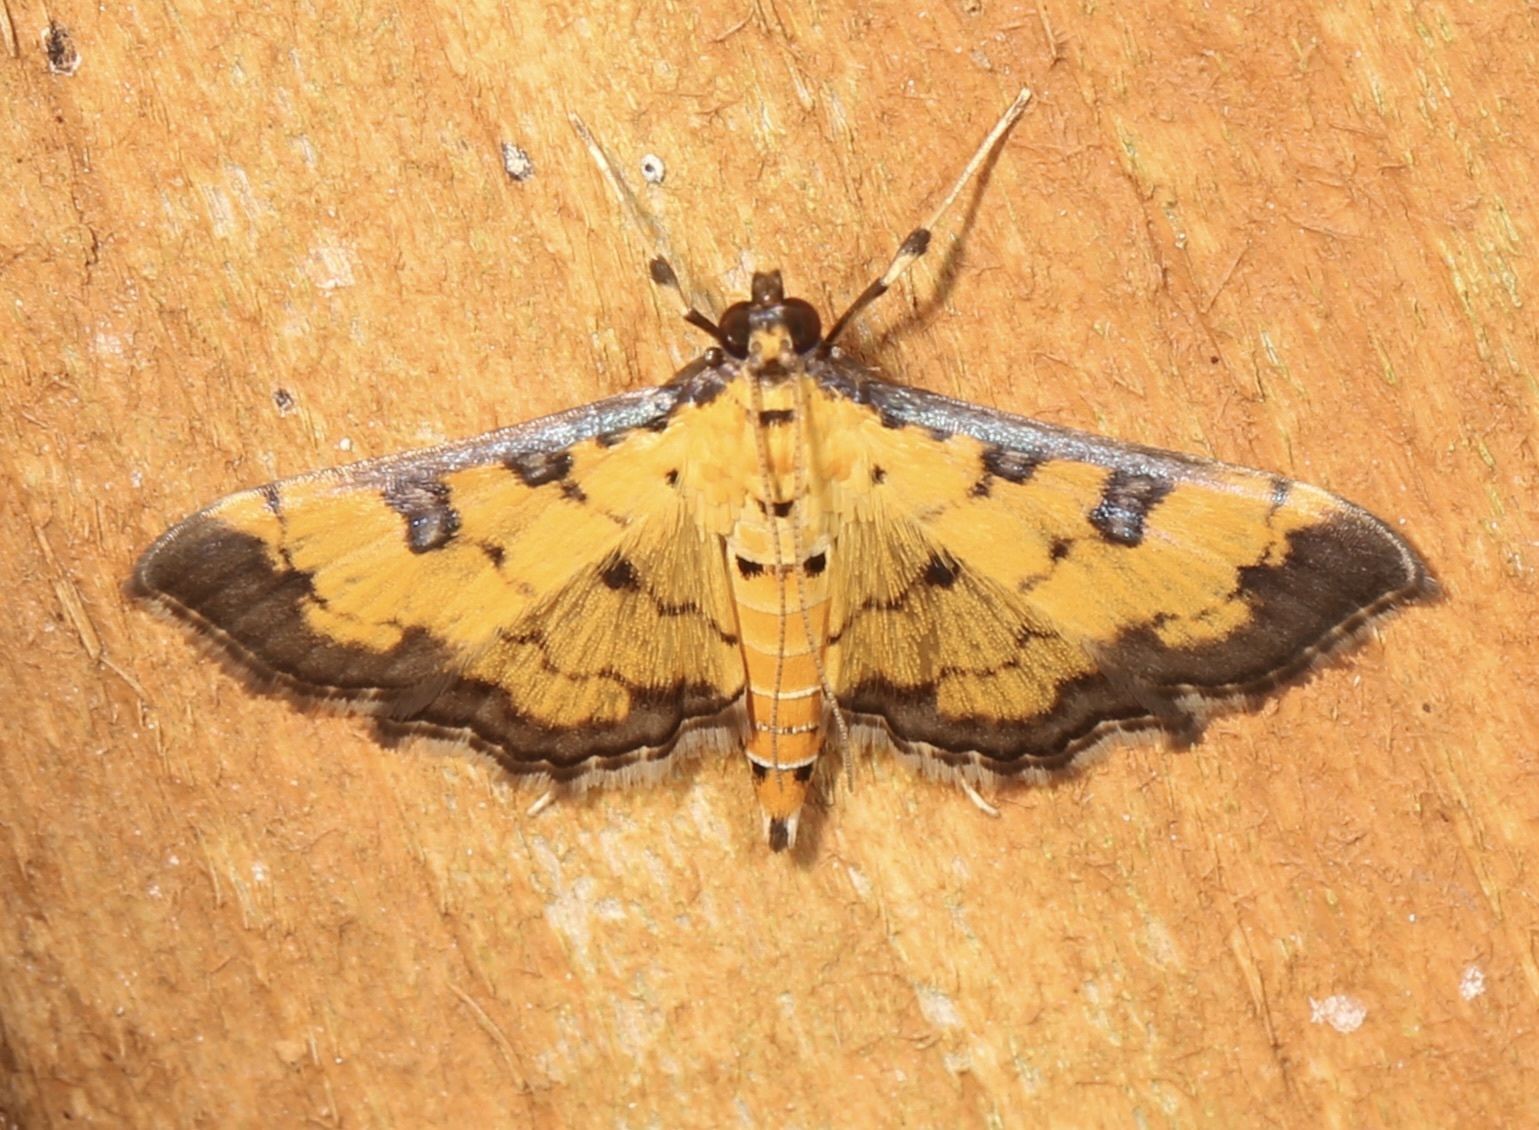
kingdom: Animalia
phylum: Arthropoda
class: Insecta
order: Lepidoptera
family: Crambidae
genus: Ategumia
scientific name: Ategumia ebulealis
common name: Moth
